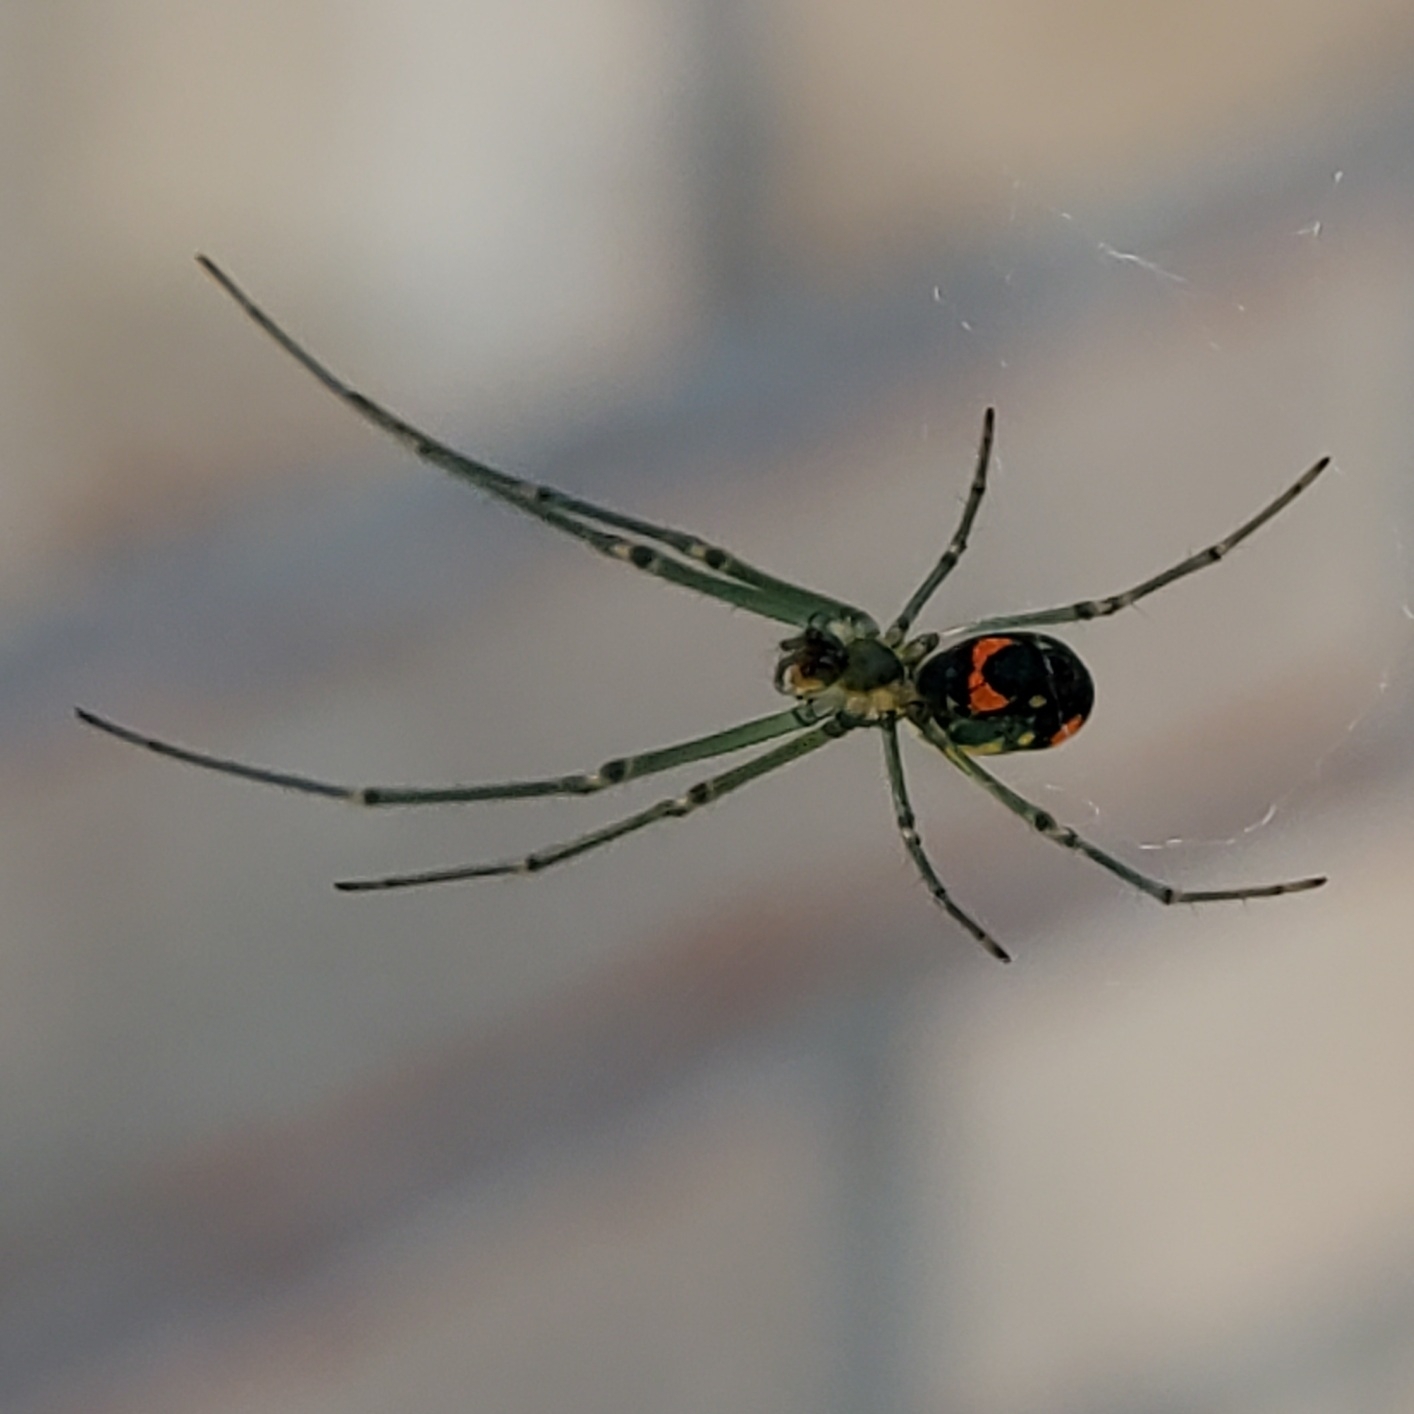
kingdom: Animalia
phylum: Arthropoda
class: Arachnida
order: Araneae
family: Tetragnathidae
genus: Leucauge
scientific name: Leucauge argyrobapta
